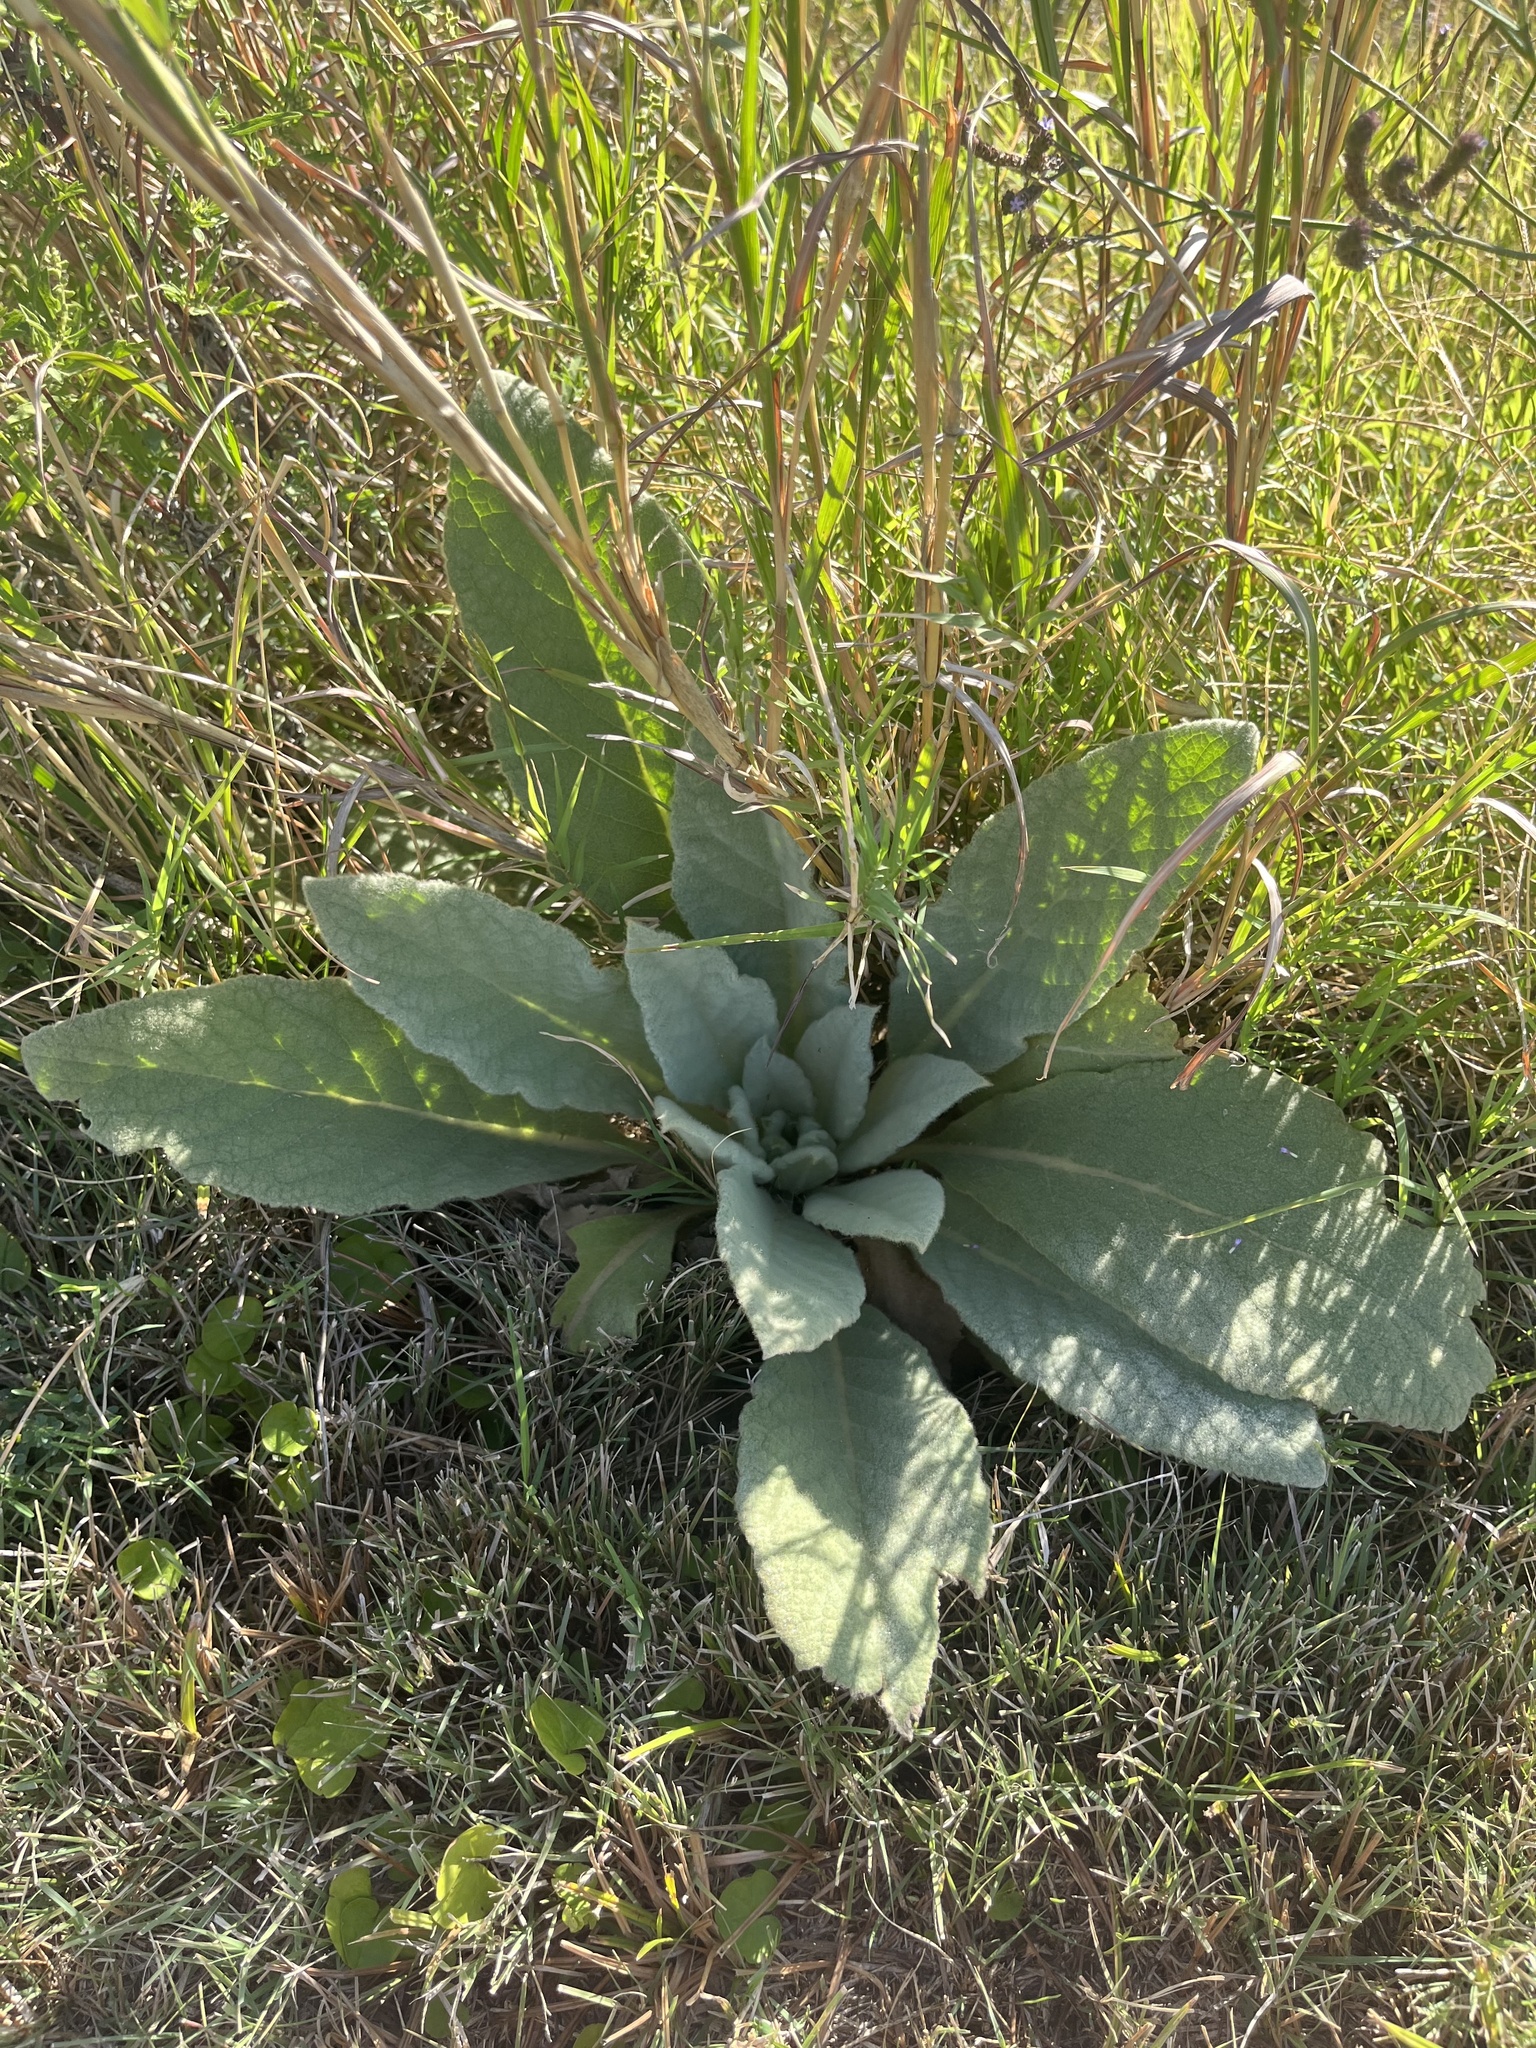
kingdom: Plantae
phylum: Tracheophyta
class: Magnoliopsida
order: Lamiales
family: Scrophulariaceae
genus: Verbascum
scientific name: Verbascum thapsus
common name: Common mullein
